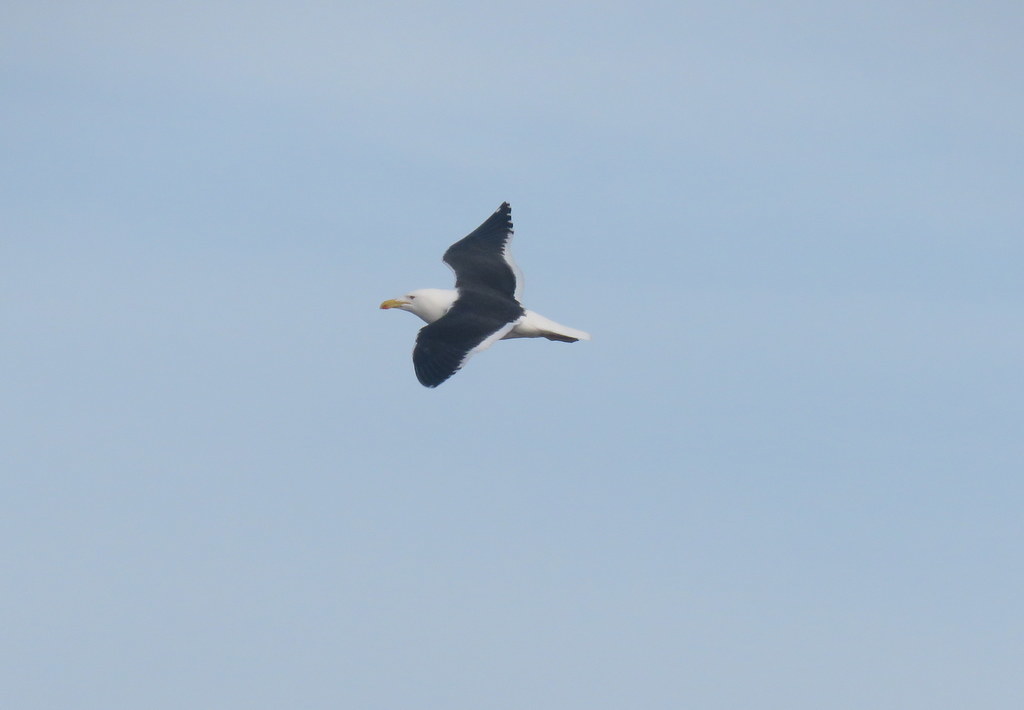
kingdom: Animalia
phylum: Chordata
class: Aves
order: Charadriiformes
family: Laridae
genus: Larus
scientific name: Larus dominicanus
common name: Kelp gull
